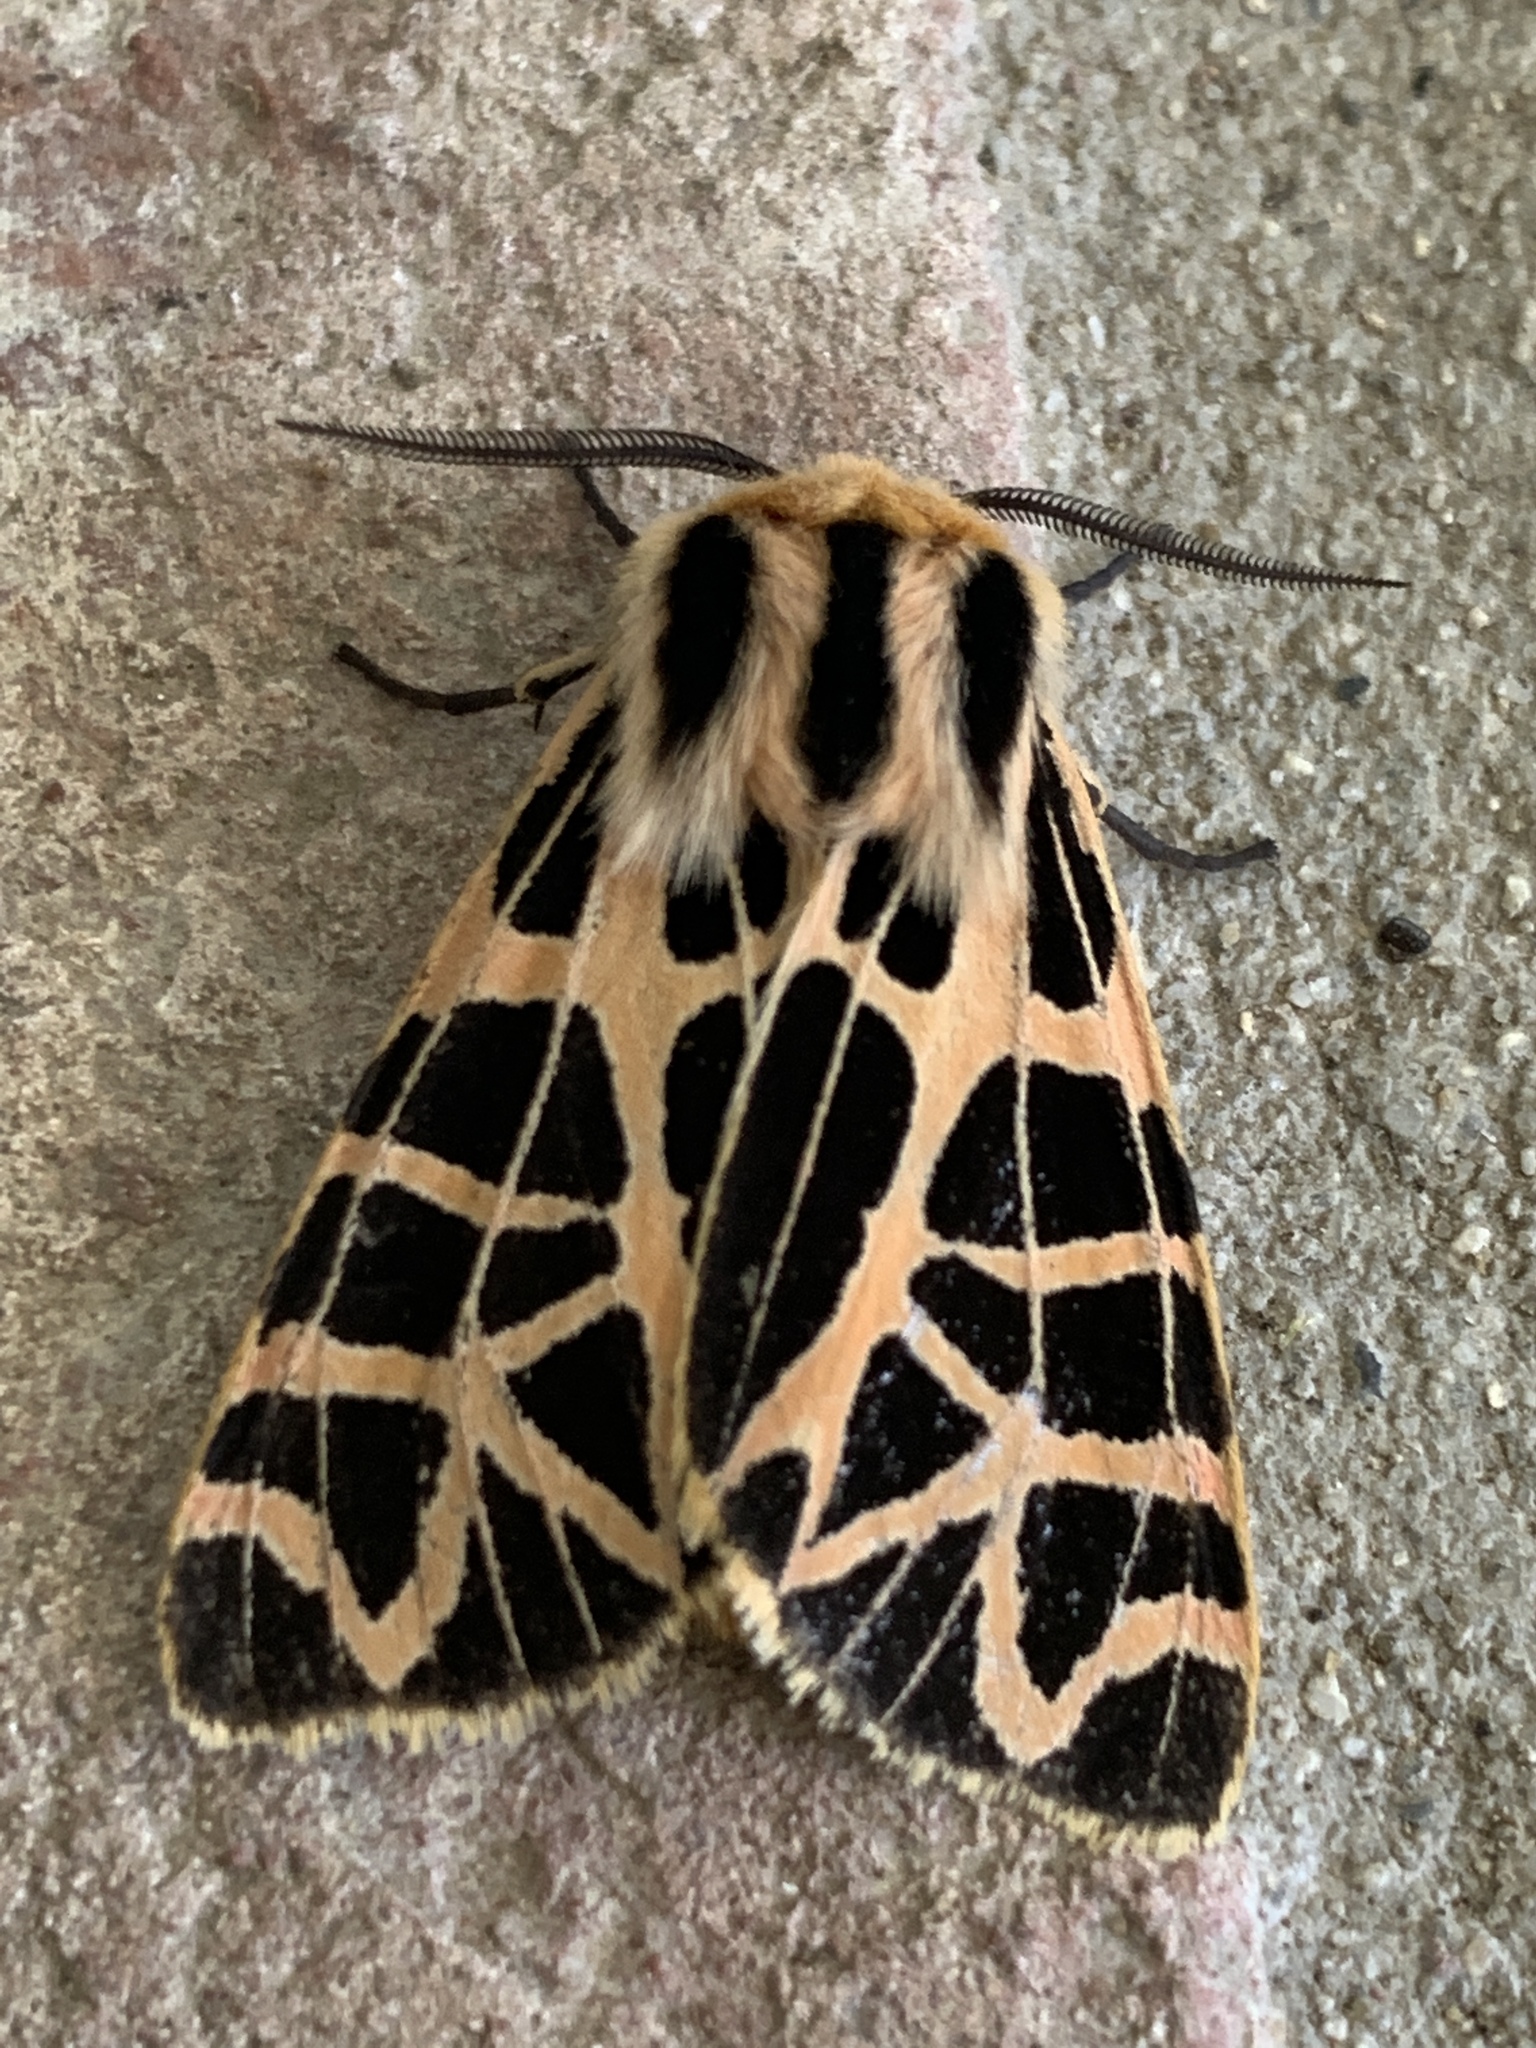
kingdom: Animalia
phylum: Arthropoda
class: Insecta
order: Lepidoptera
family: Erebidae
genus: Apantesis
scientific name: Apantesis
